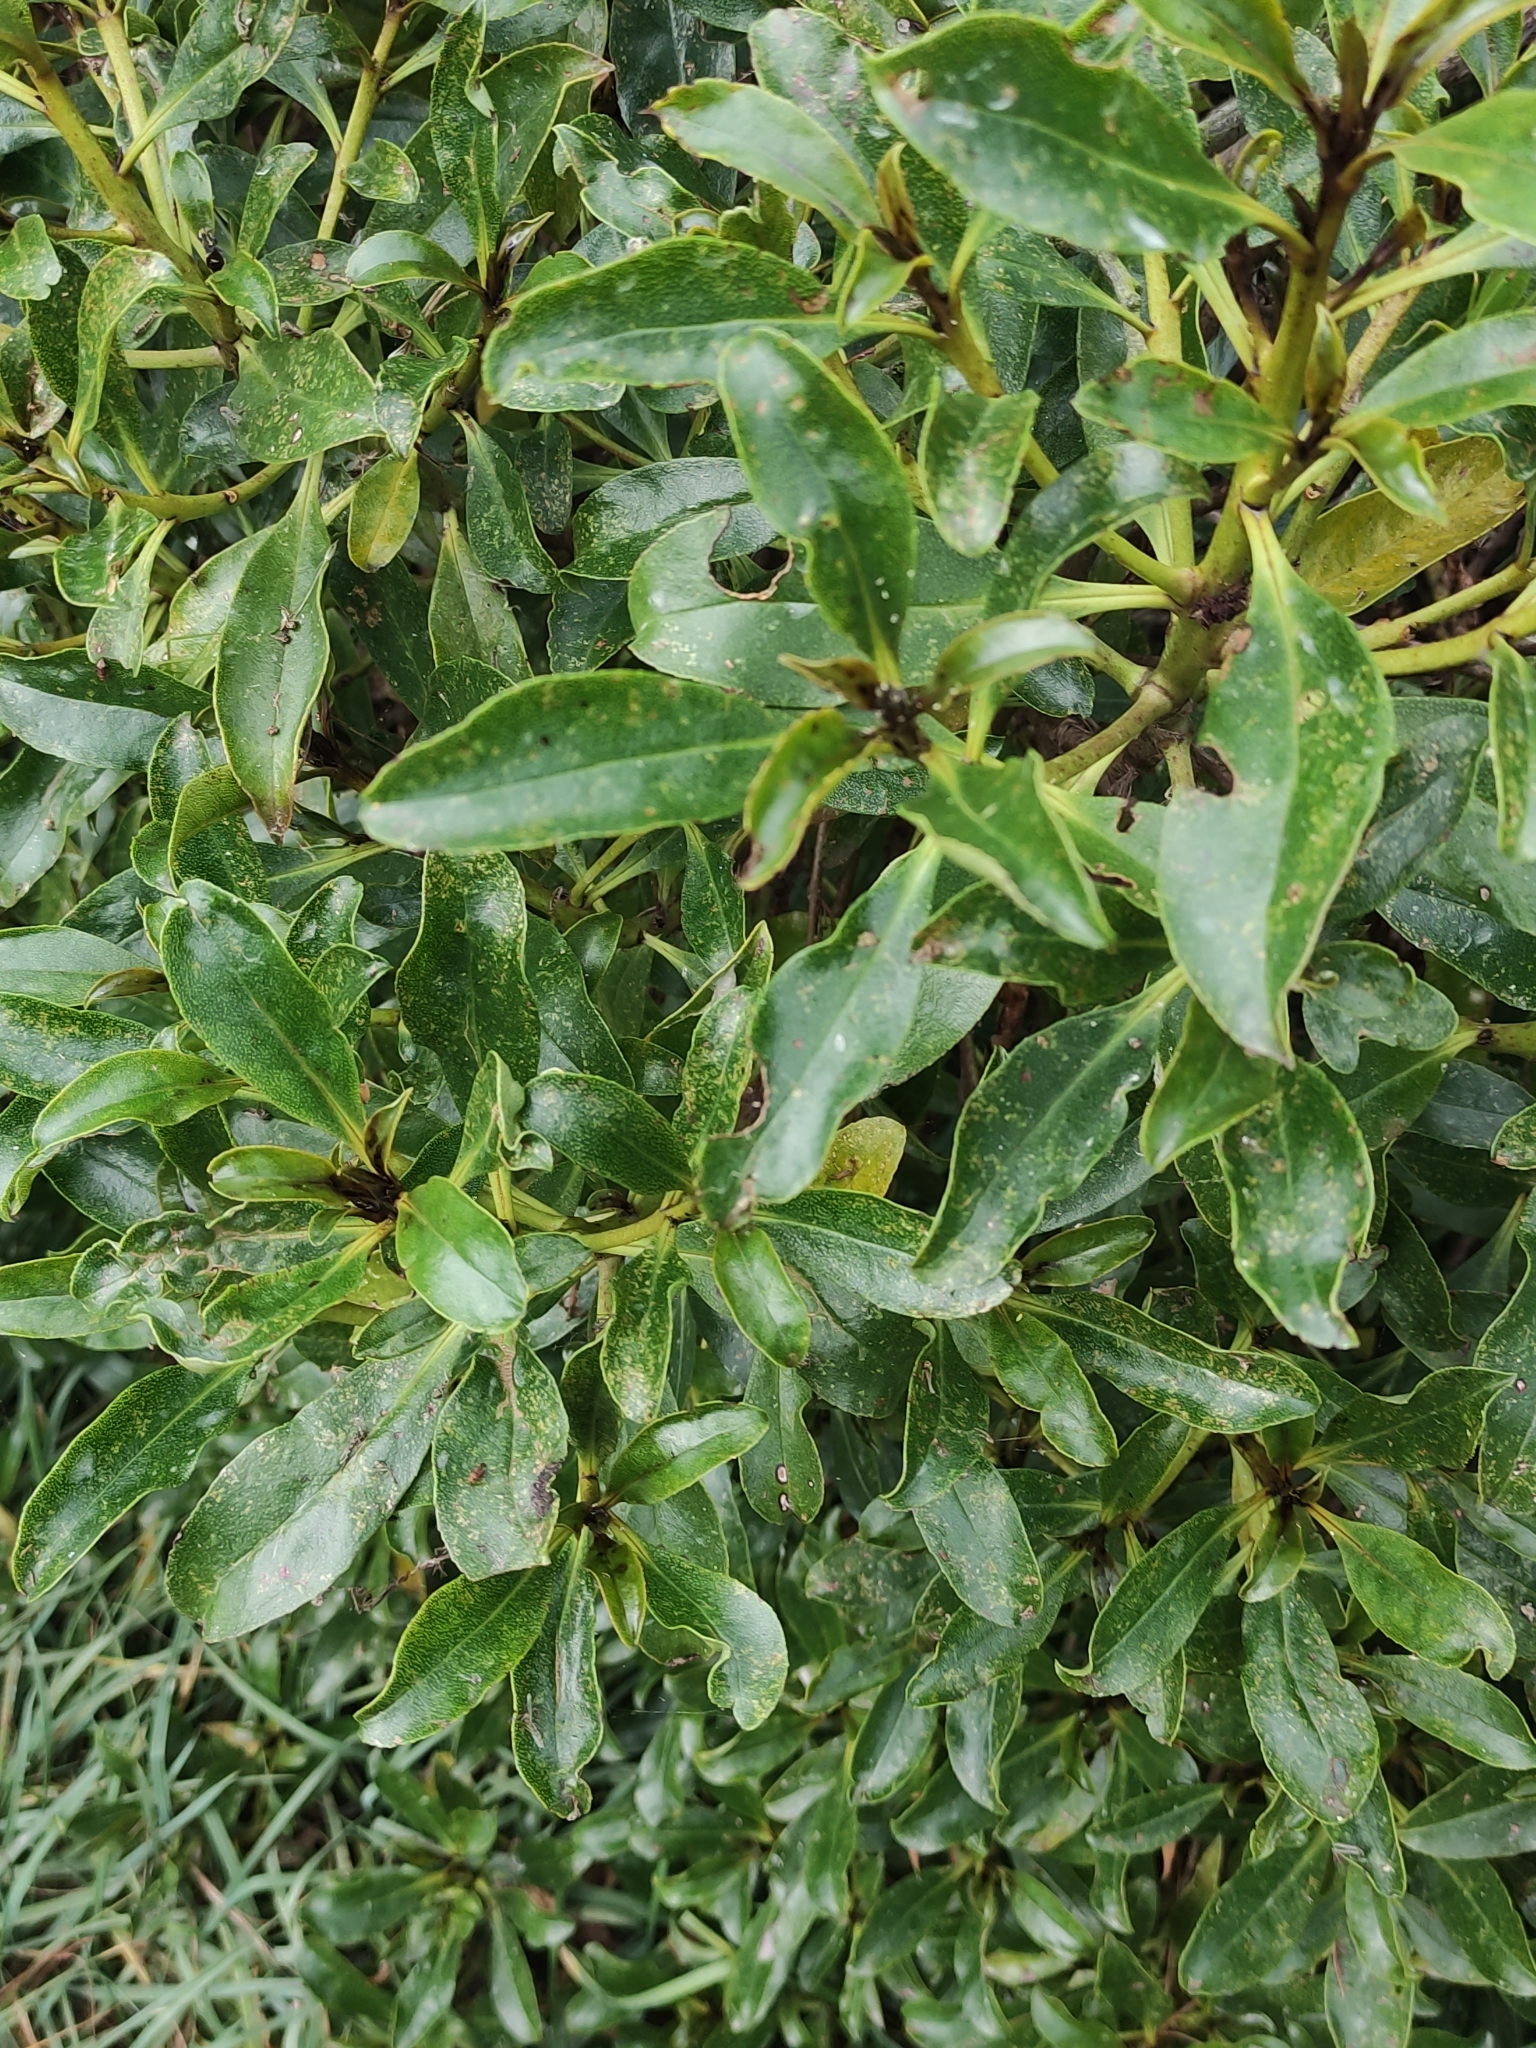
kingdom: Plantae
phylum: Tracheophyta
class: Magnoliopsida
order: Lamiales
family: Scrophulariaceae
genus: Myoporum
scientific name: Myoporum laetum
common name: Ngaio tree
